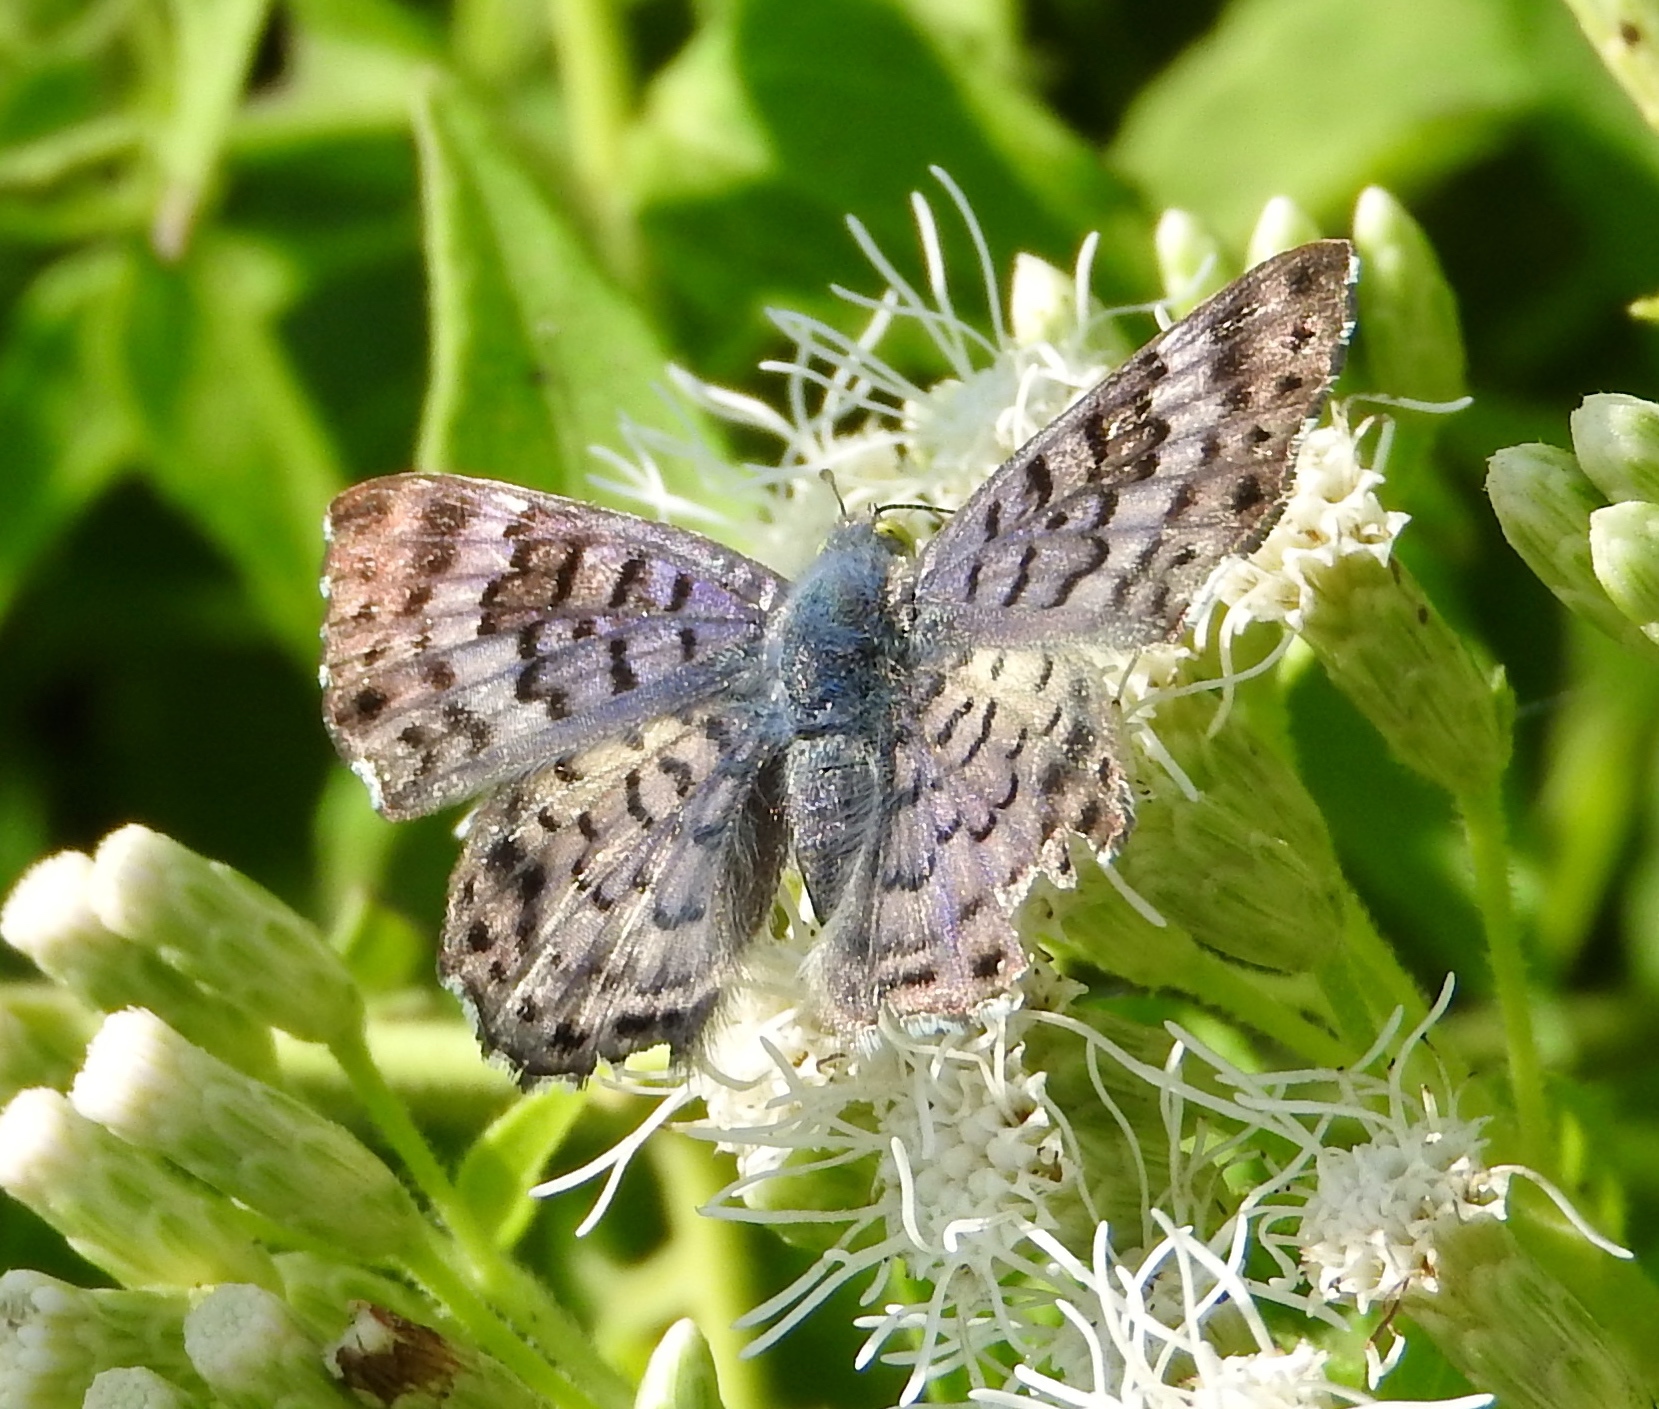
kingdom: Animalia
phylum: Arthropoda
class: Insecta
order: Diptera
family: Acroceridae
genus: Lasia
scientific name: Lasia
